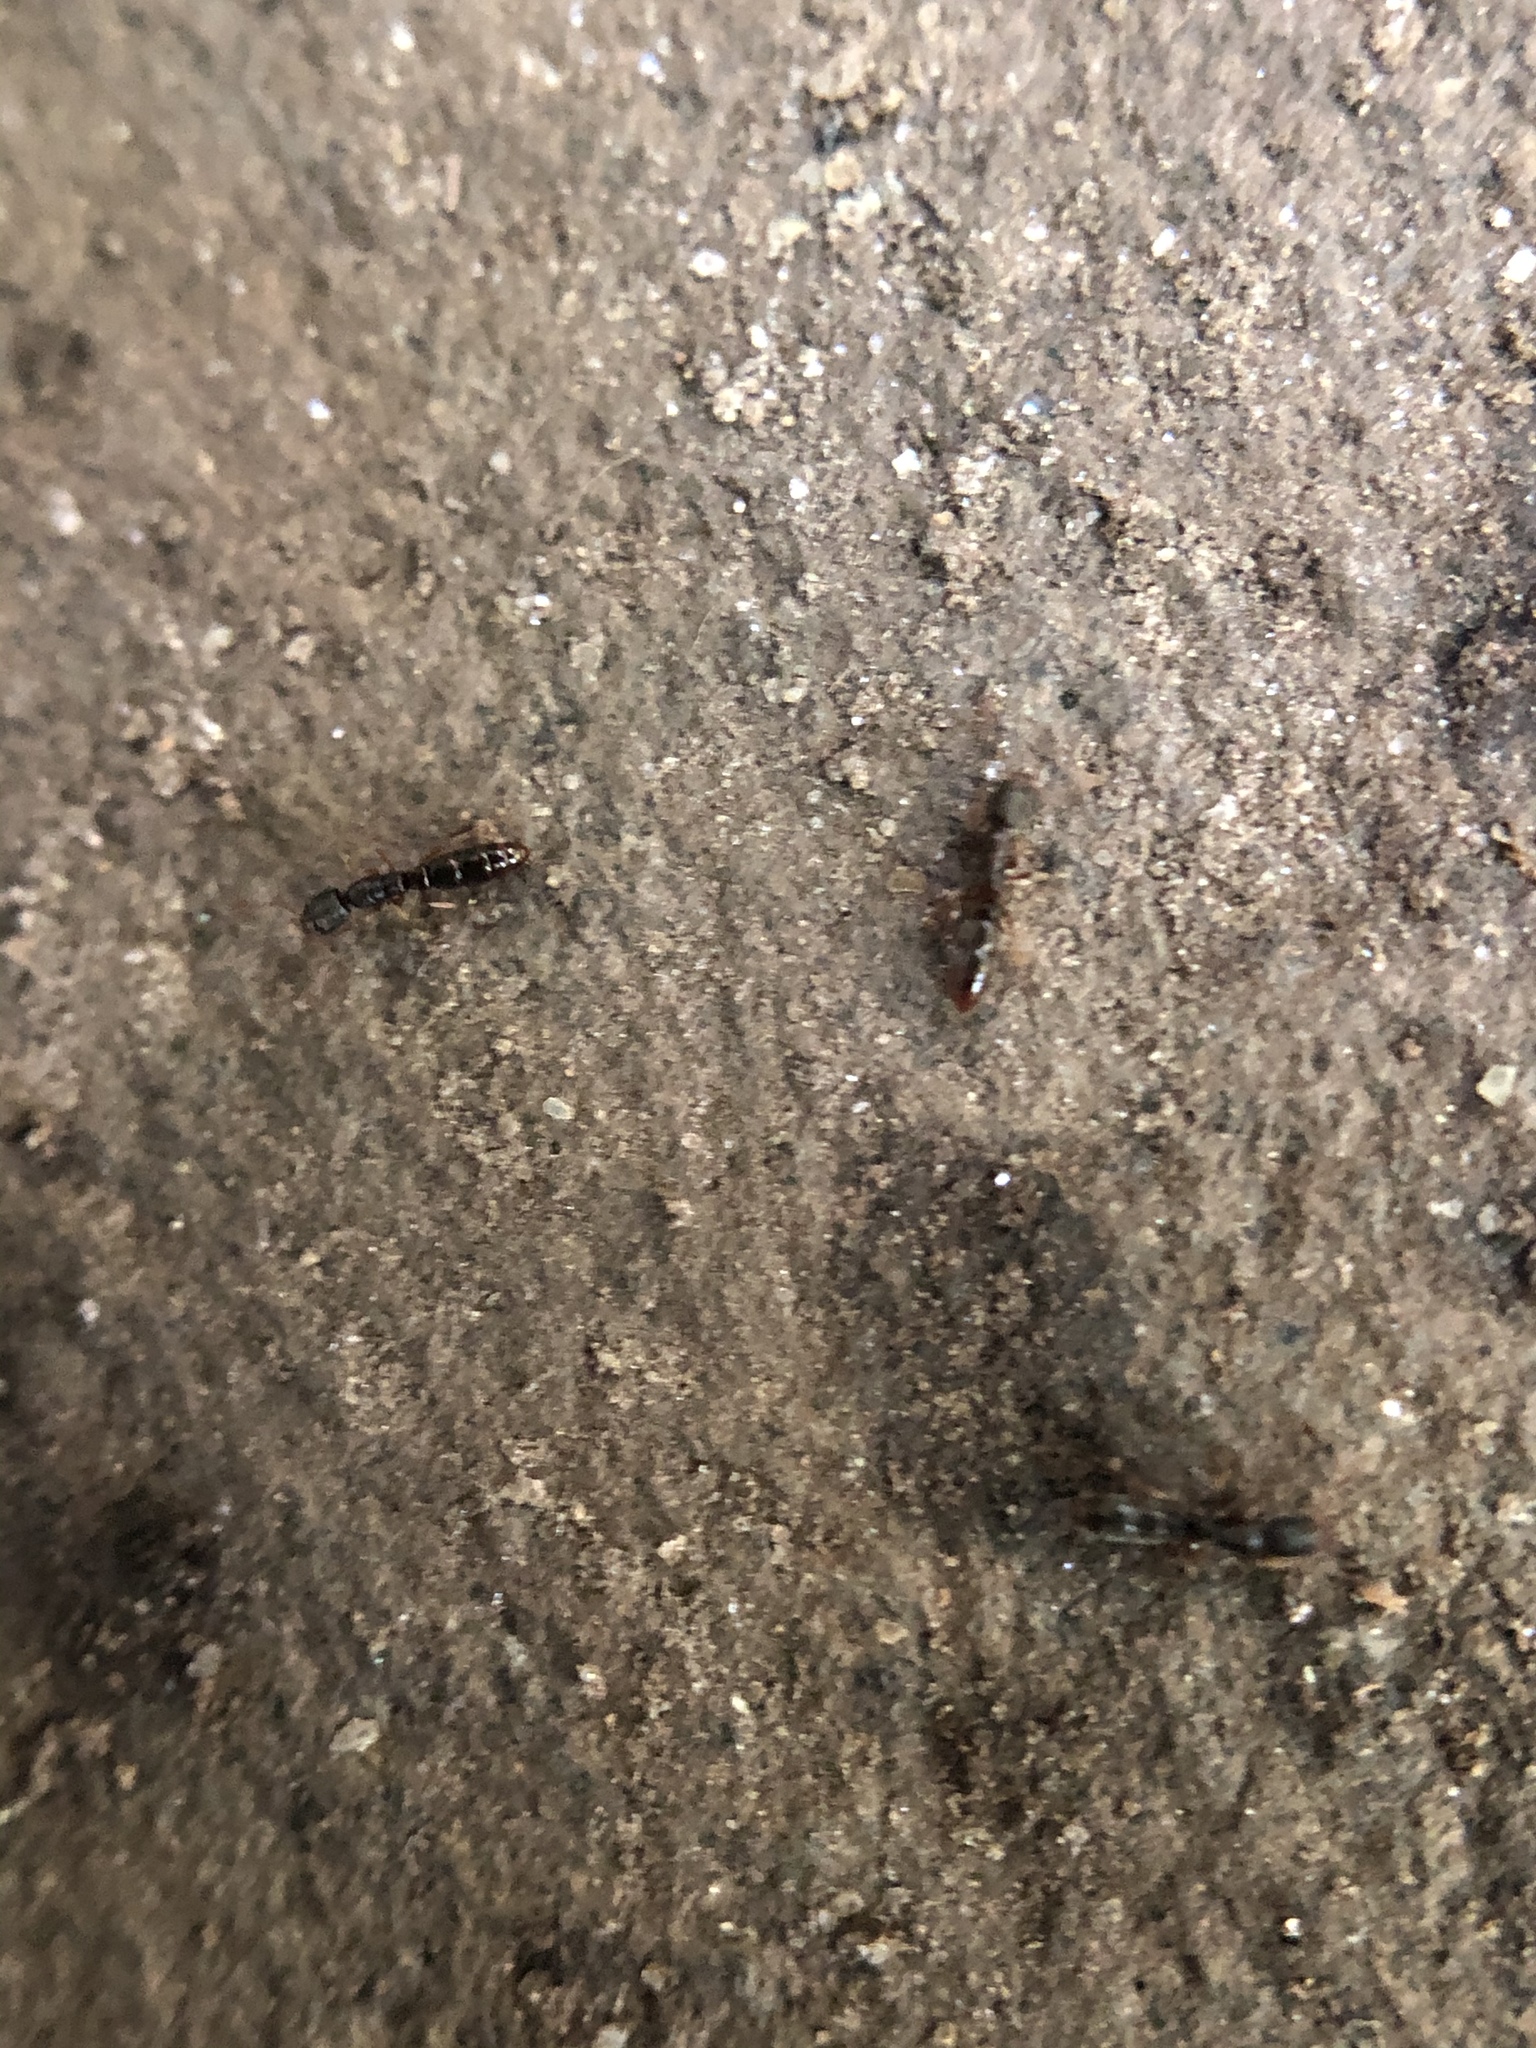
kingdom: Animalia
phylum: Arthropoda
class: Insecta
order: Hymenoptera
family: Formicidae
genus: Ponera
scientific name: Ponera pennsylvanica
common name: Pennsylvania ponera
